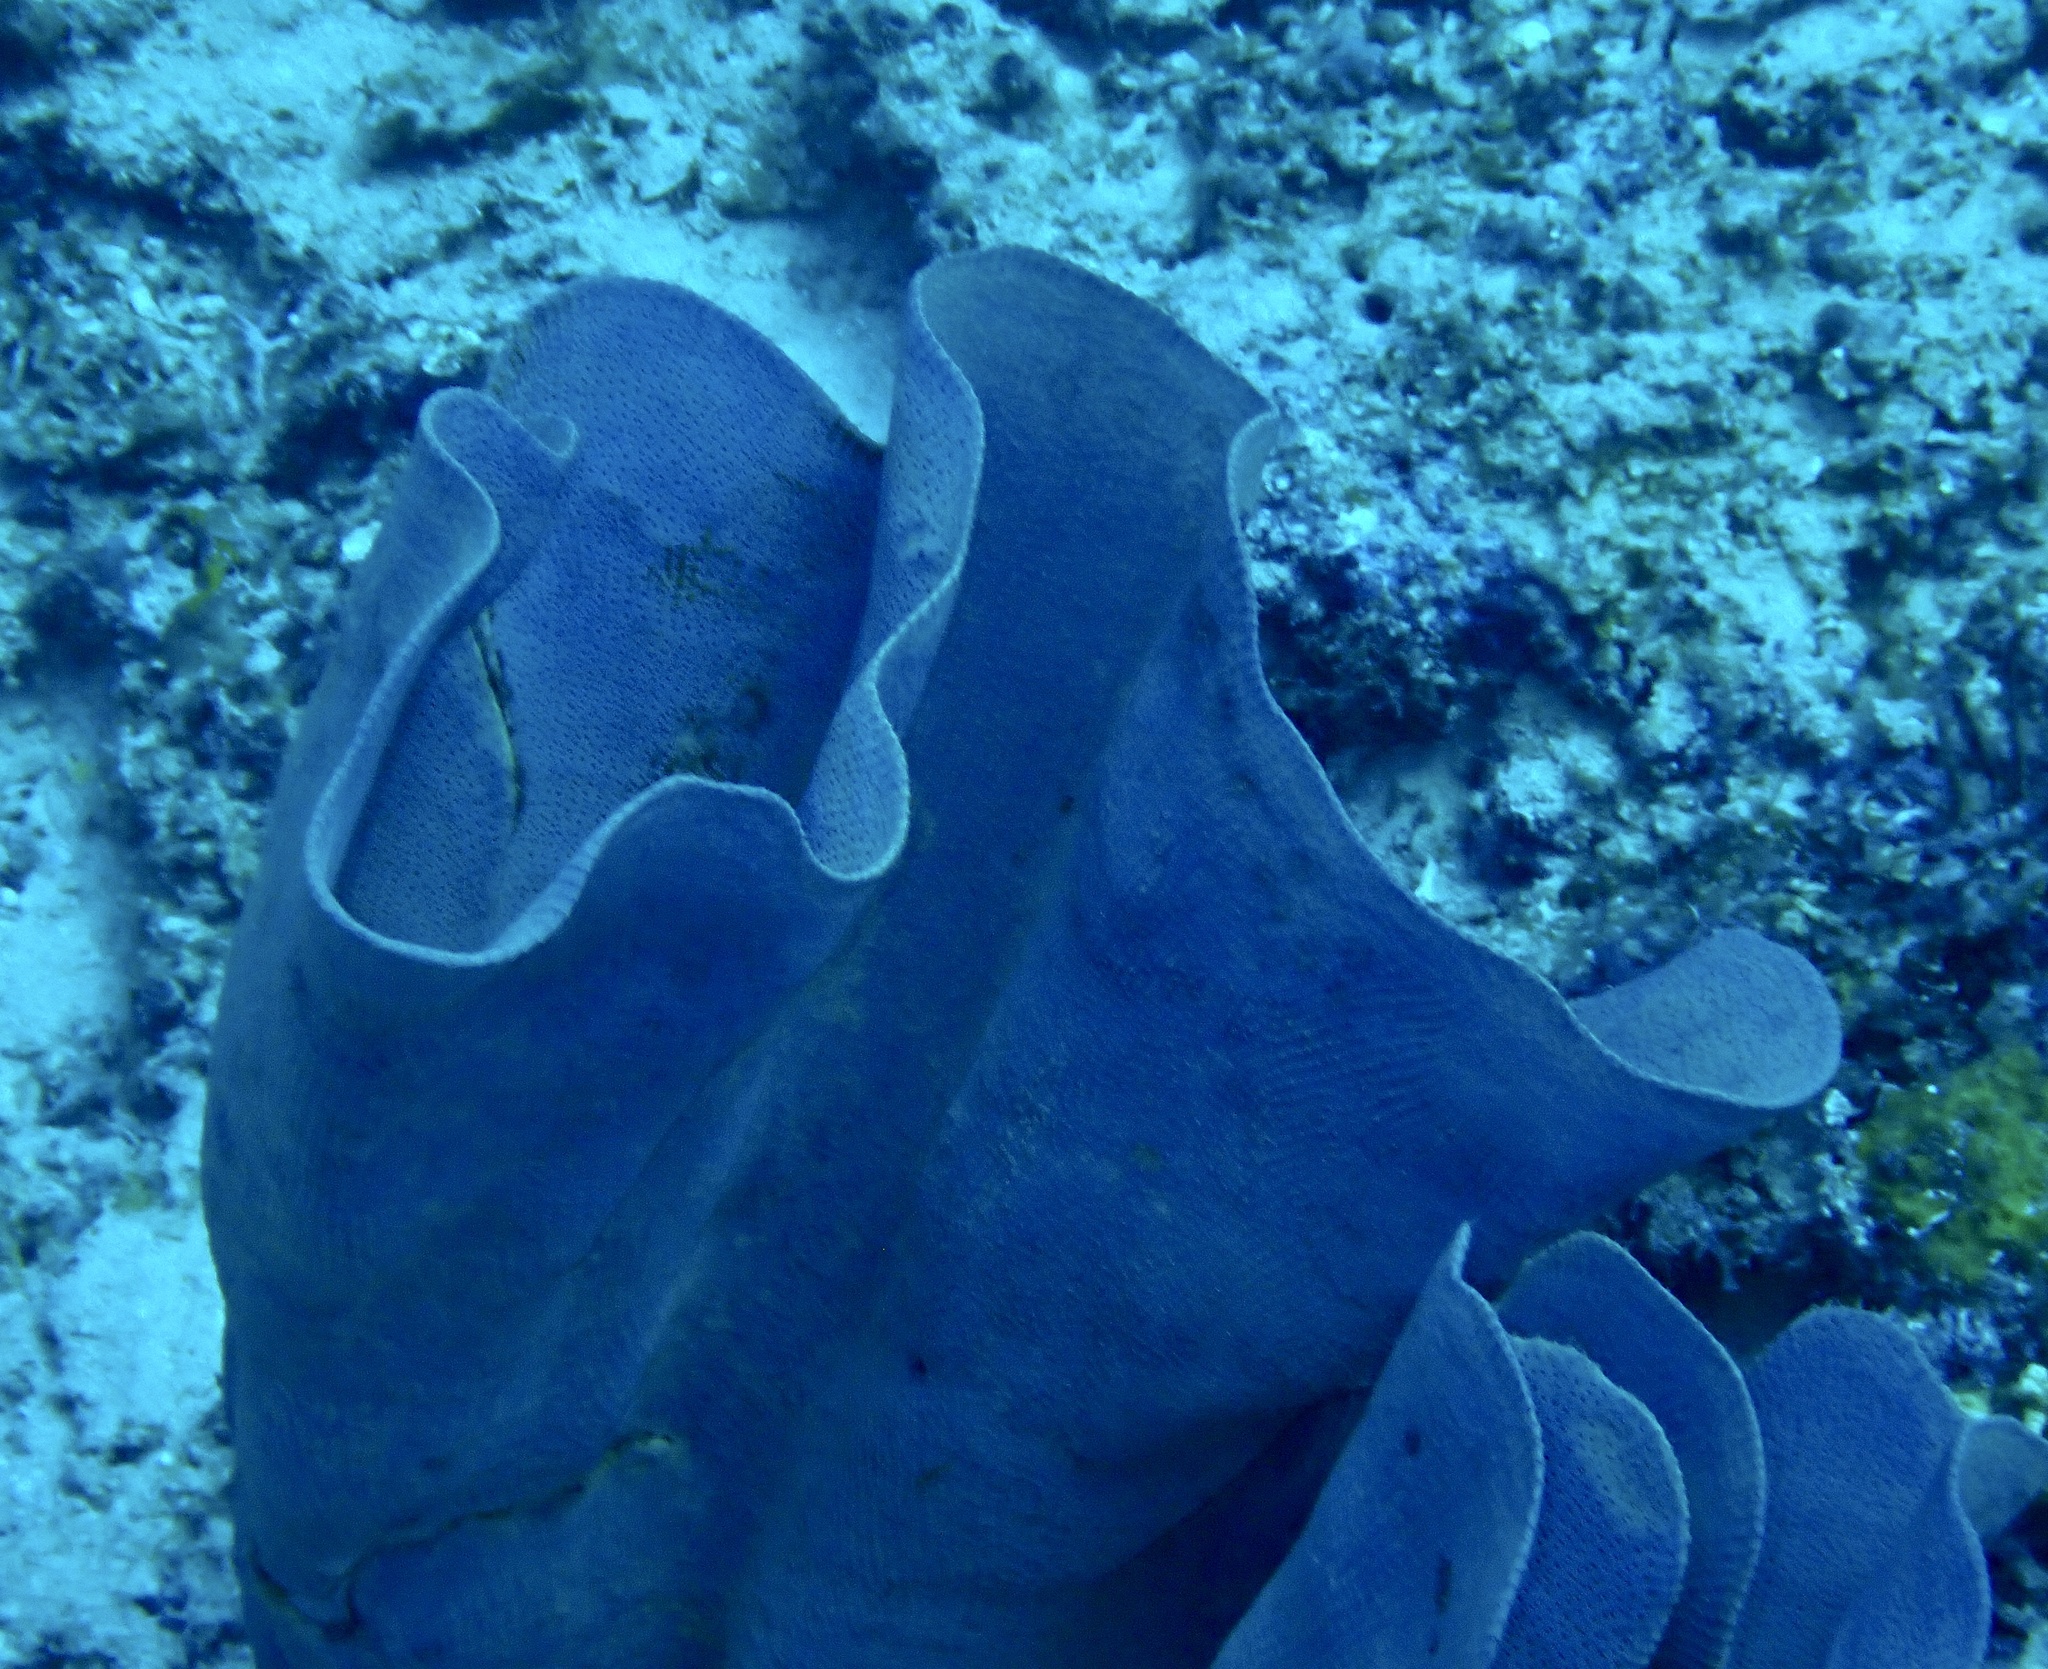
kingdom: Animalia
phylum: Porifera
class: Demospongiae
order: Verongiida
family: Ianthellidae
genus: Ianthella
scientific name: Ianthella basta
